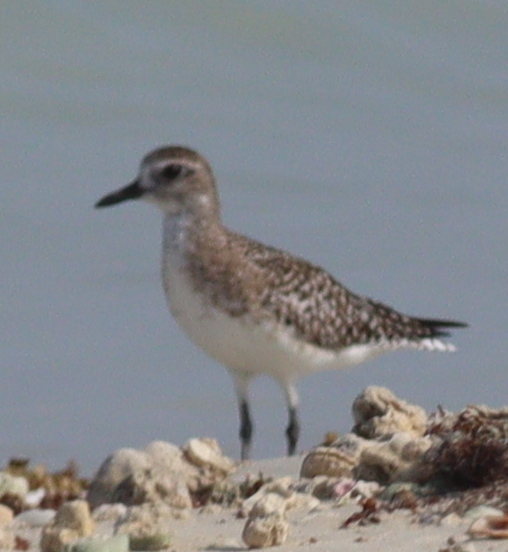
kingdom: Animalia
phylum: Chordata
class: Aves
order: Charadriiformes
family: Charadriidae
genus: Pluvialis
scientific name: Pluvialis squatarola
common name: Grey plover
